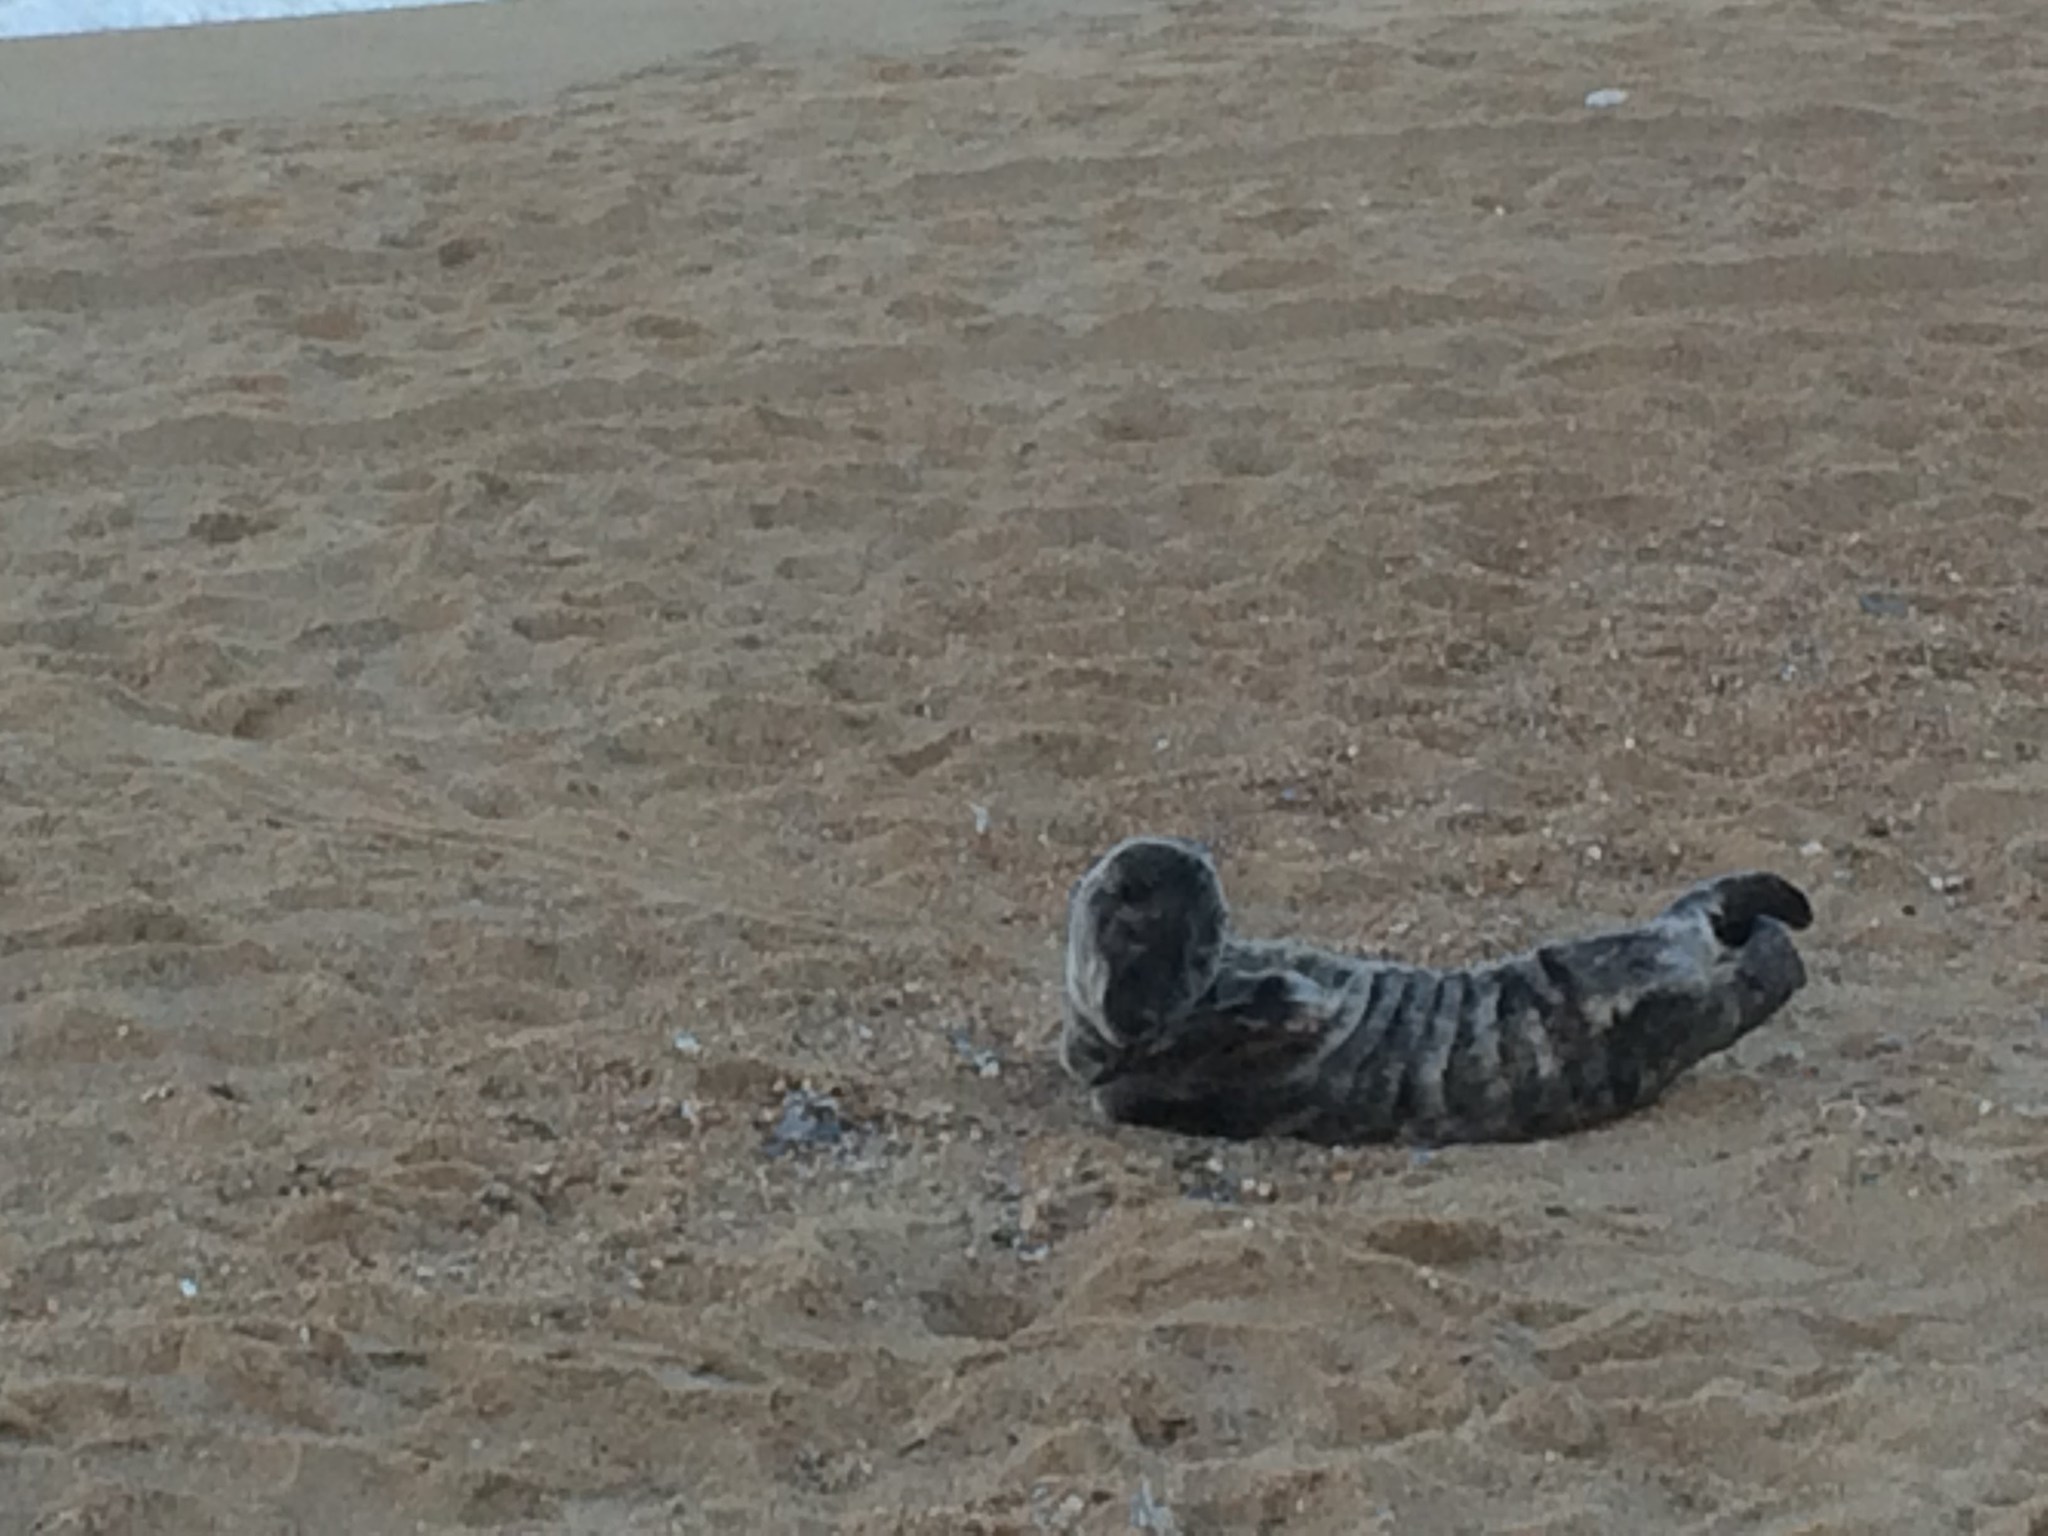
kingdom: Animalia
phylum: Chordata
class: Mammalia
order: Carnivora
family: Phocidae
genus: Halichoerus
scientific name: Halichoerus grypus
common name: Grey seal
